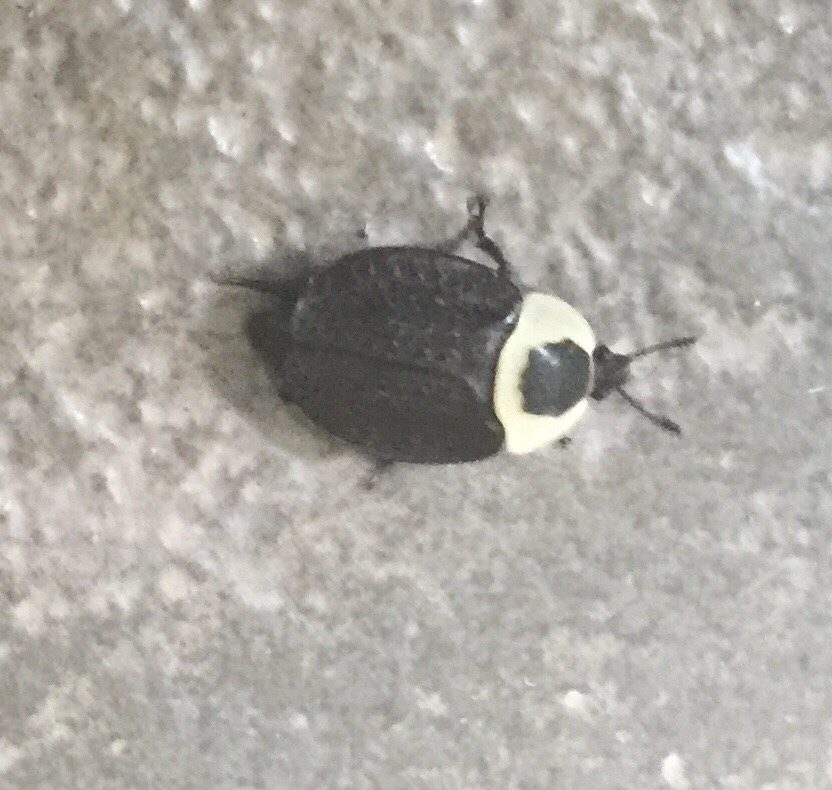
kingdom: Animalia
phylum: Arthropoda
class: Insecta
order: Coleoptera
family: Staphylinidae
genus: Necrophila
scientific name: Necrophila americana
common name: American carrion beetle
